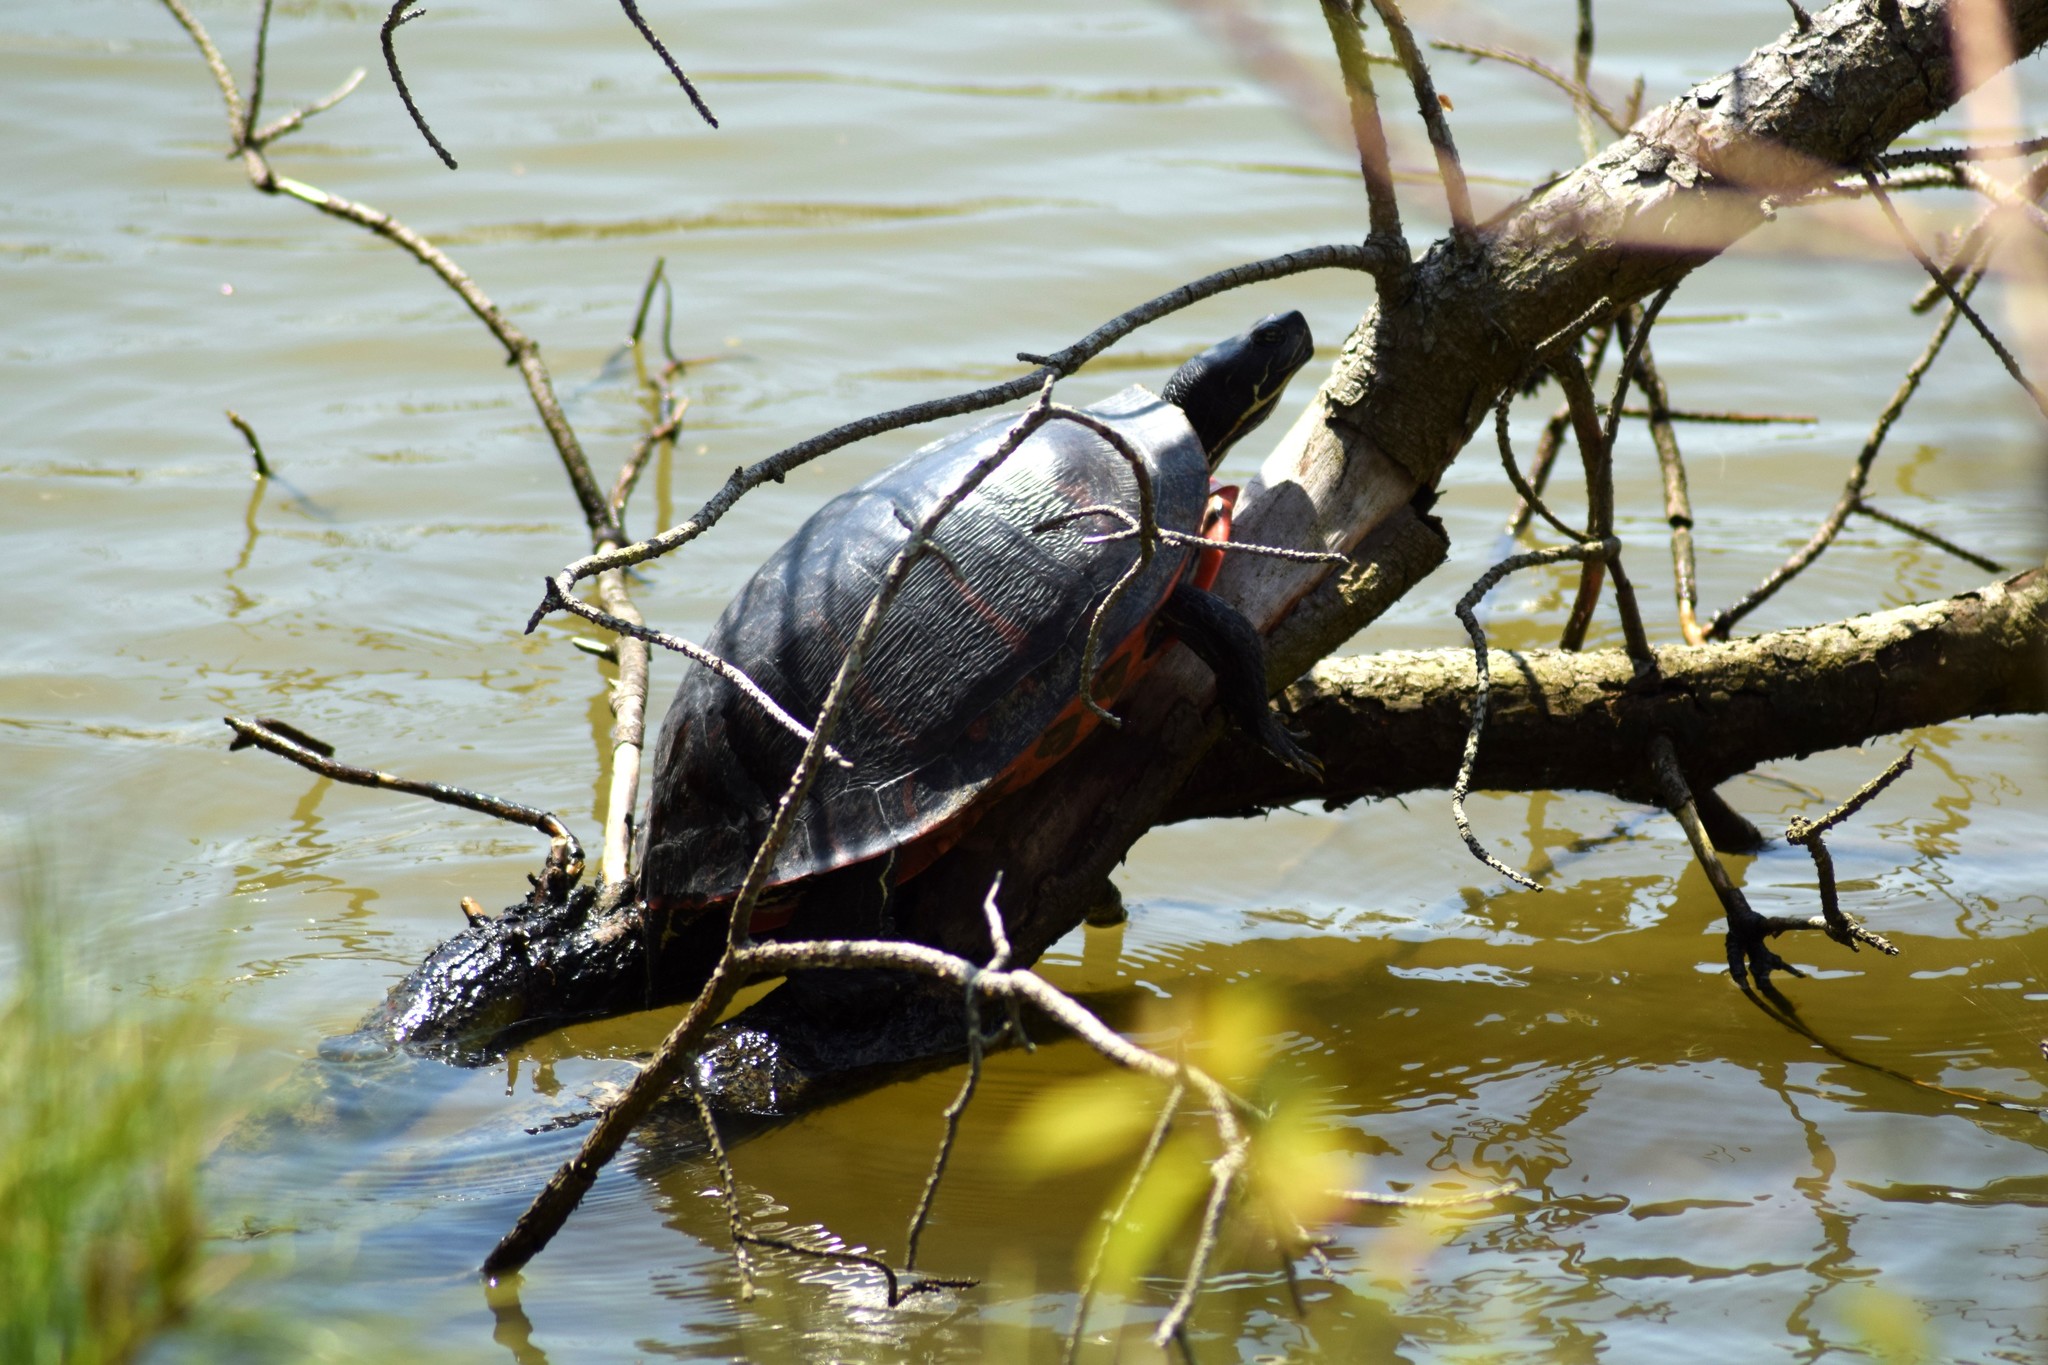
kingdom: Animalia
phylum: Chordata
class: Testudines
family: Emydidae
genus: Pseudemys
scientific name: Pseudemys rubriventris
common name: American red-bellied turtle
